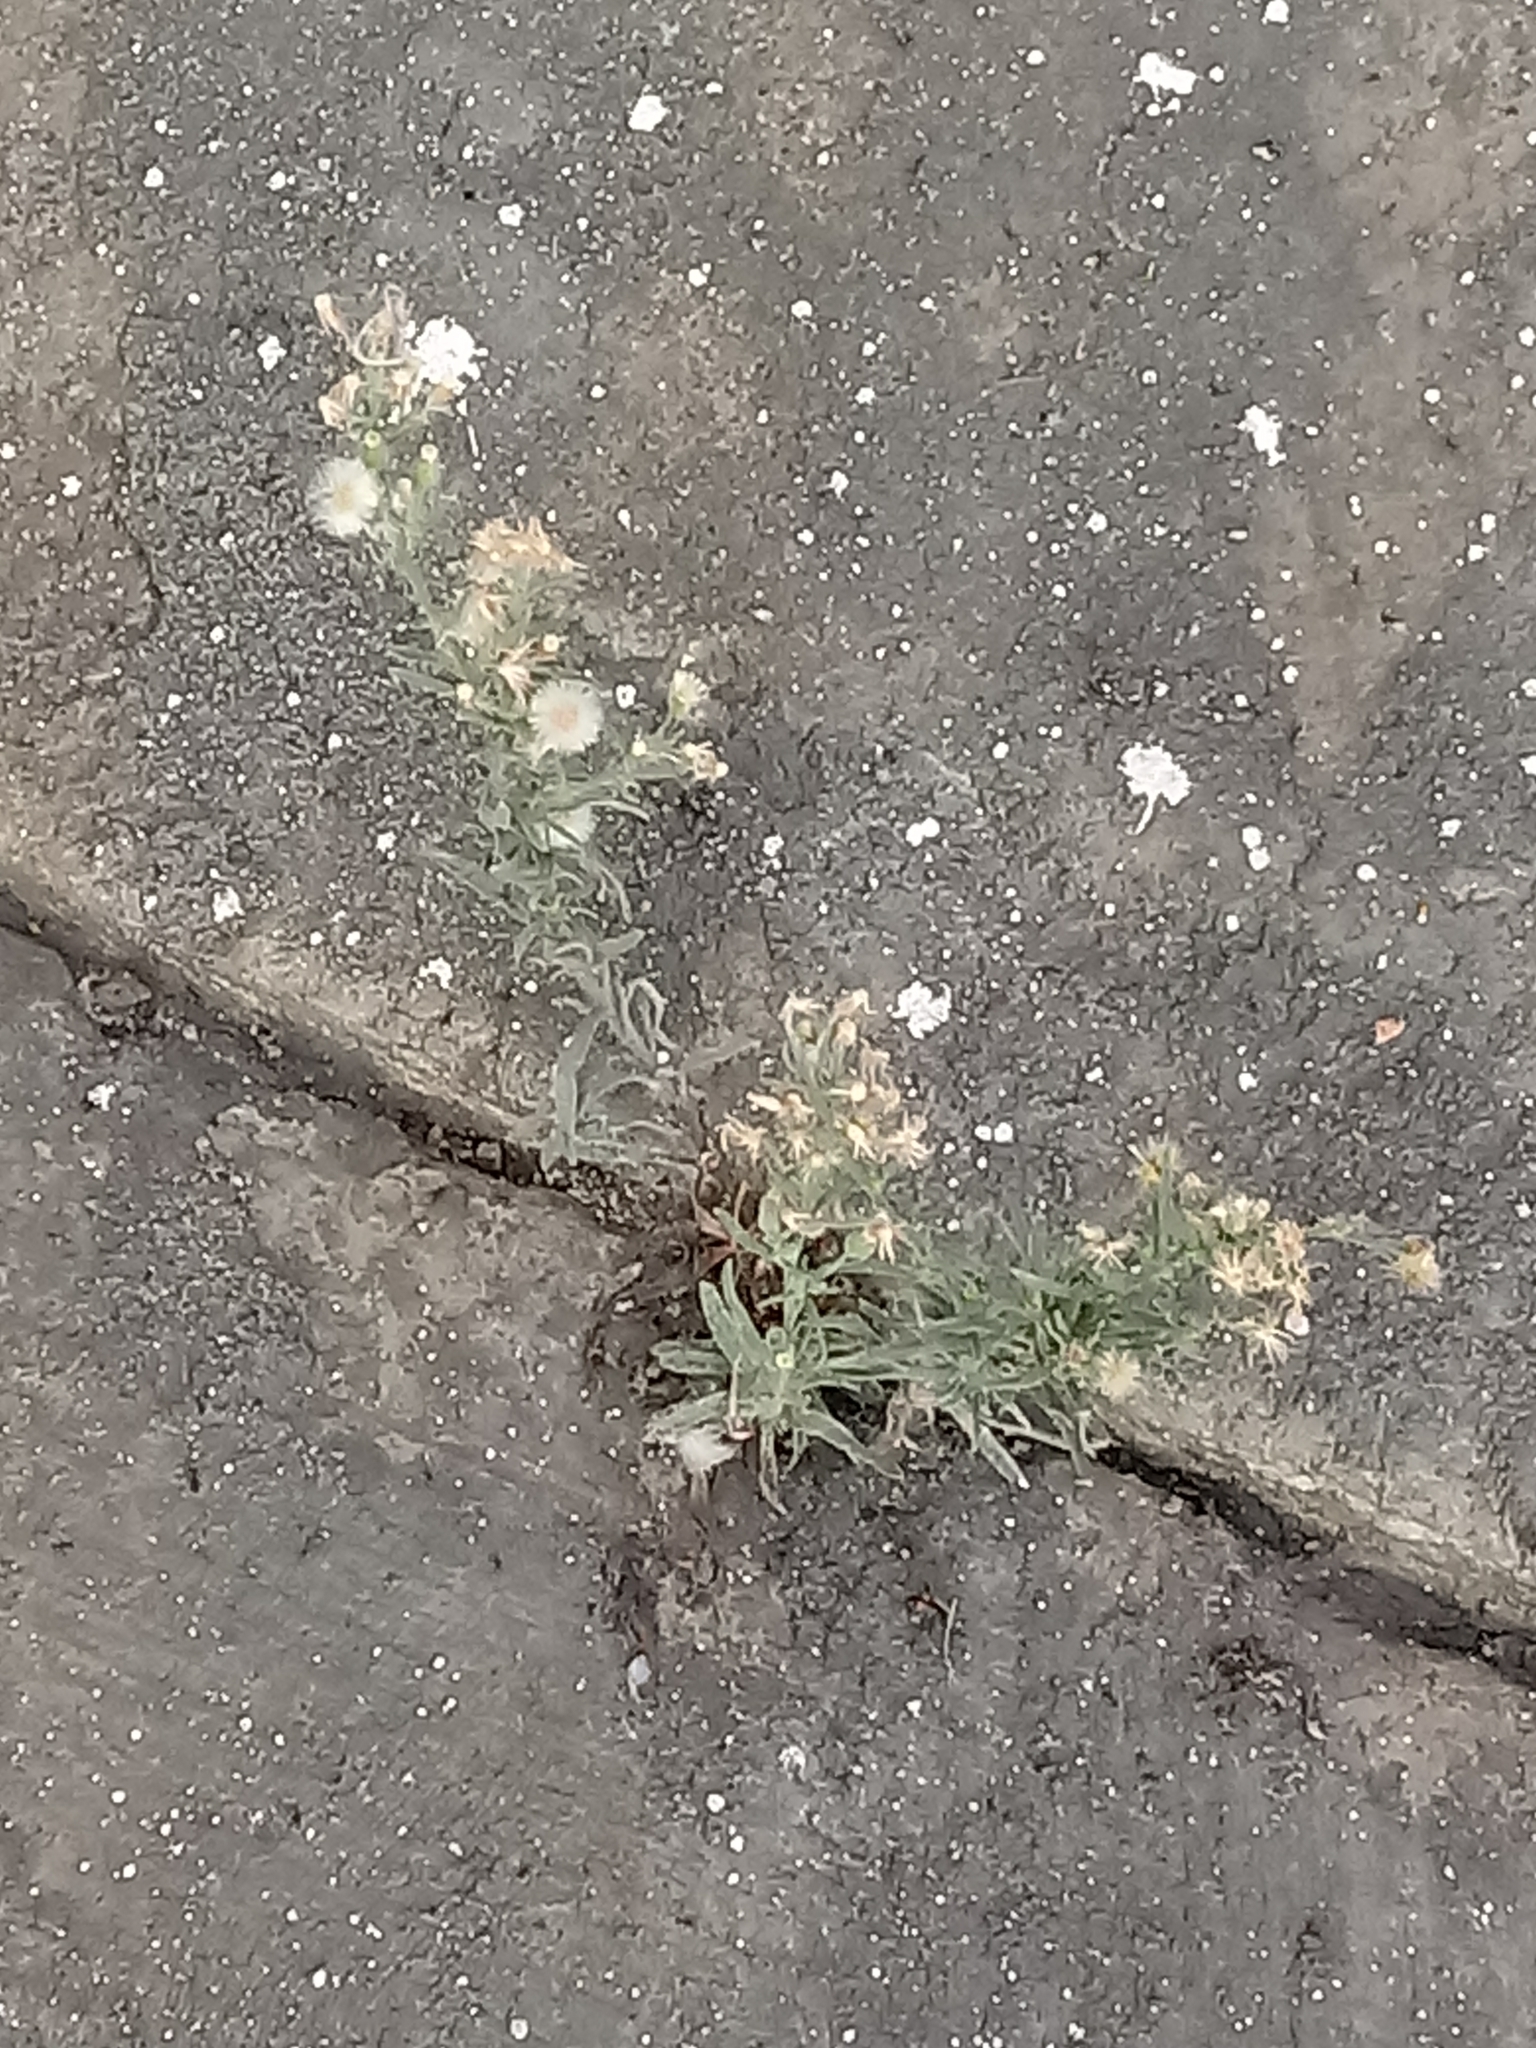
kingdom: Plantae
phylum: Tracheophyta
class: Magnoliopsida
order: Asterales
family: Asteraceae
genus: Erigeron
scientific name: Erigeron bonariensis
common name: Argentine fleabane
